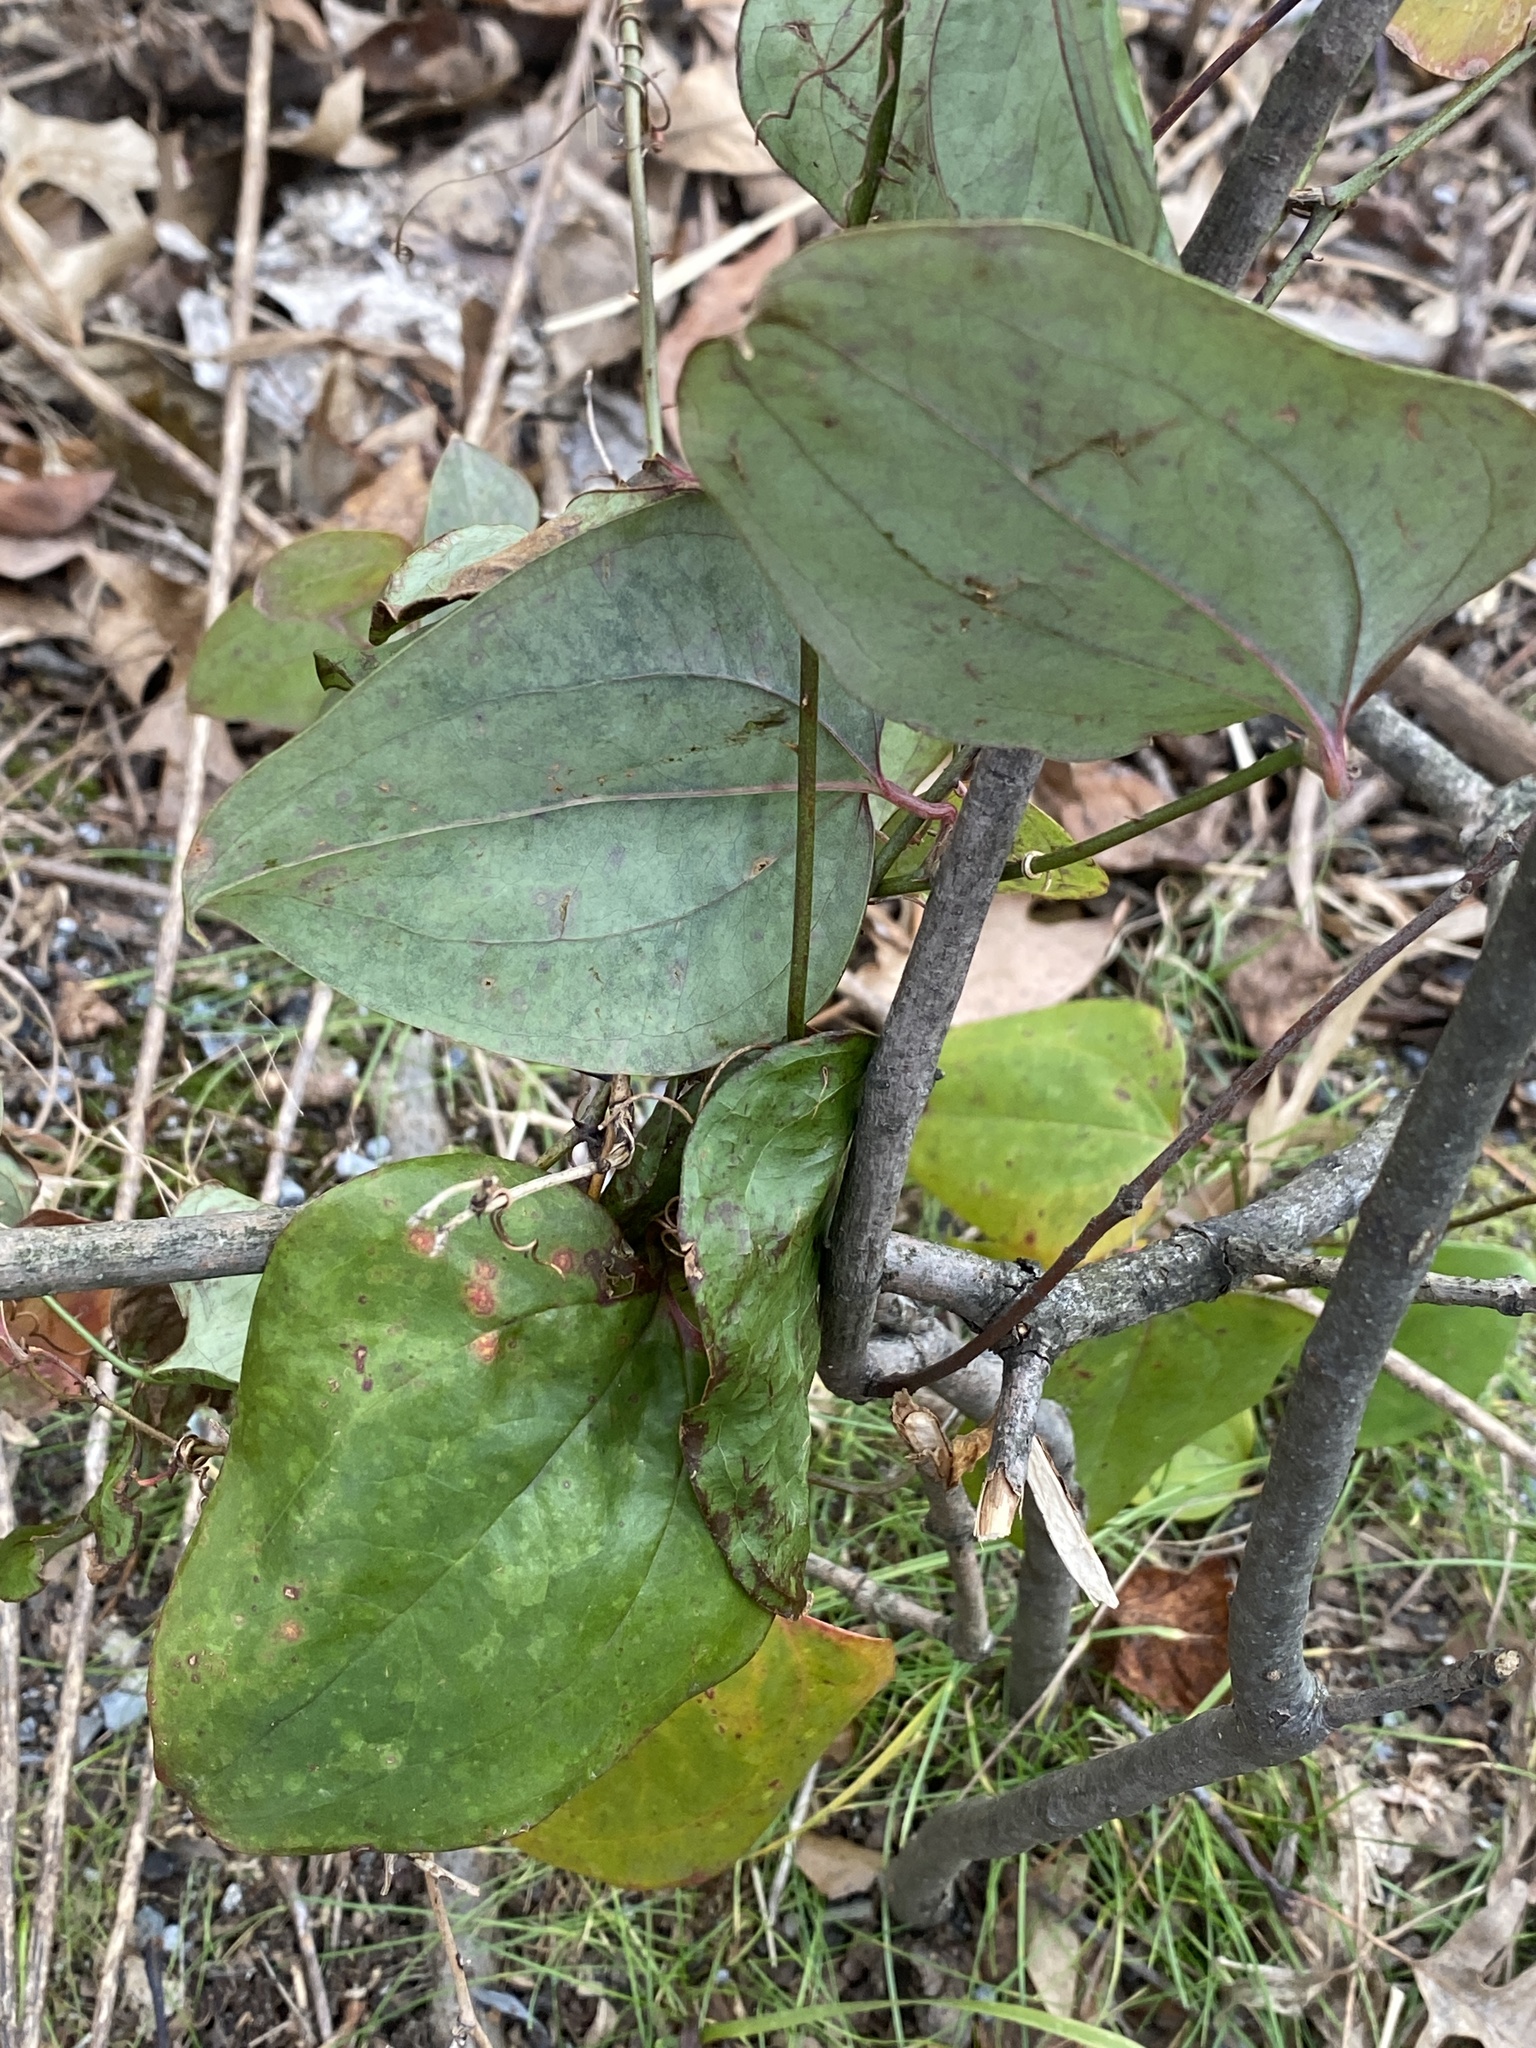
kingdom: Plantae
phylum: Tracheophyta
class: Liliopsida
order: Liliales
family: Smilacaceae
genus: Smilax
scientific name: Smilax glauca
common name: Cat greenbrier
